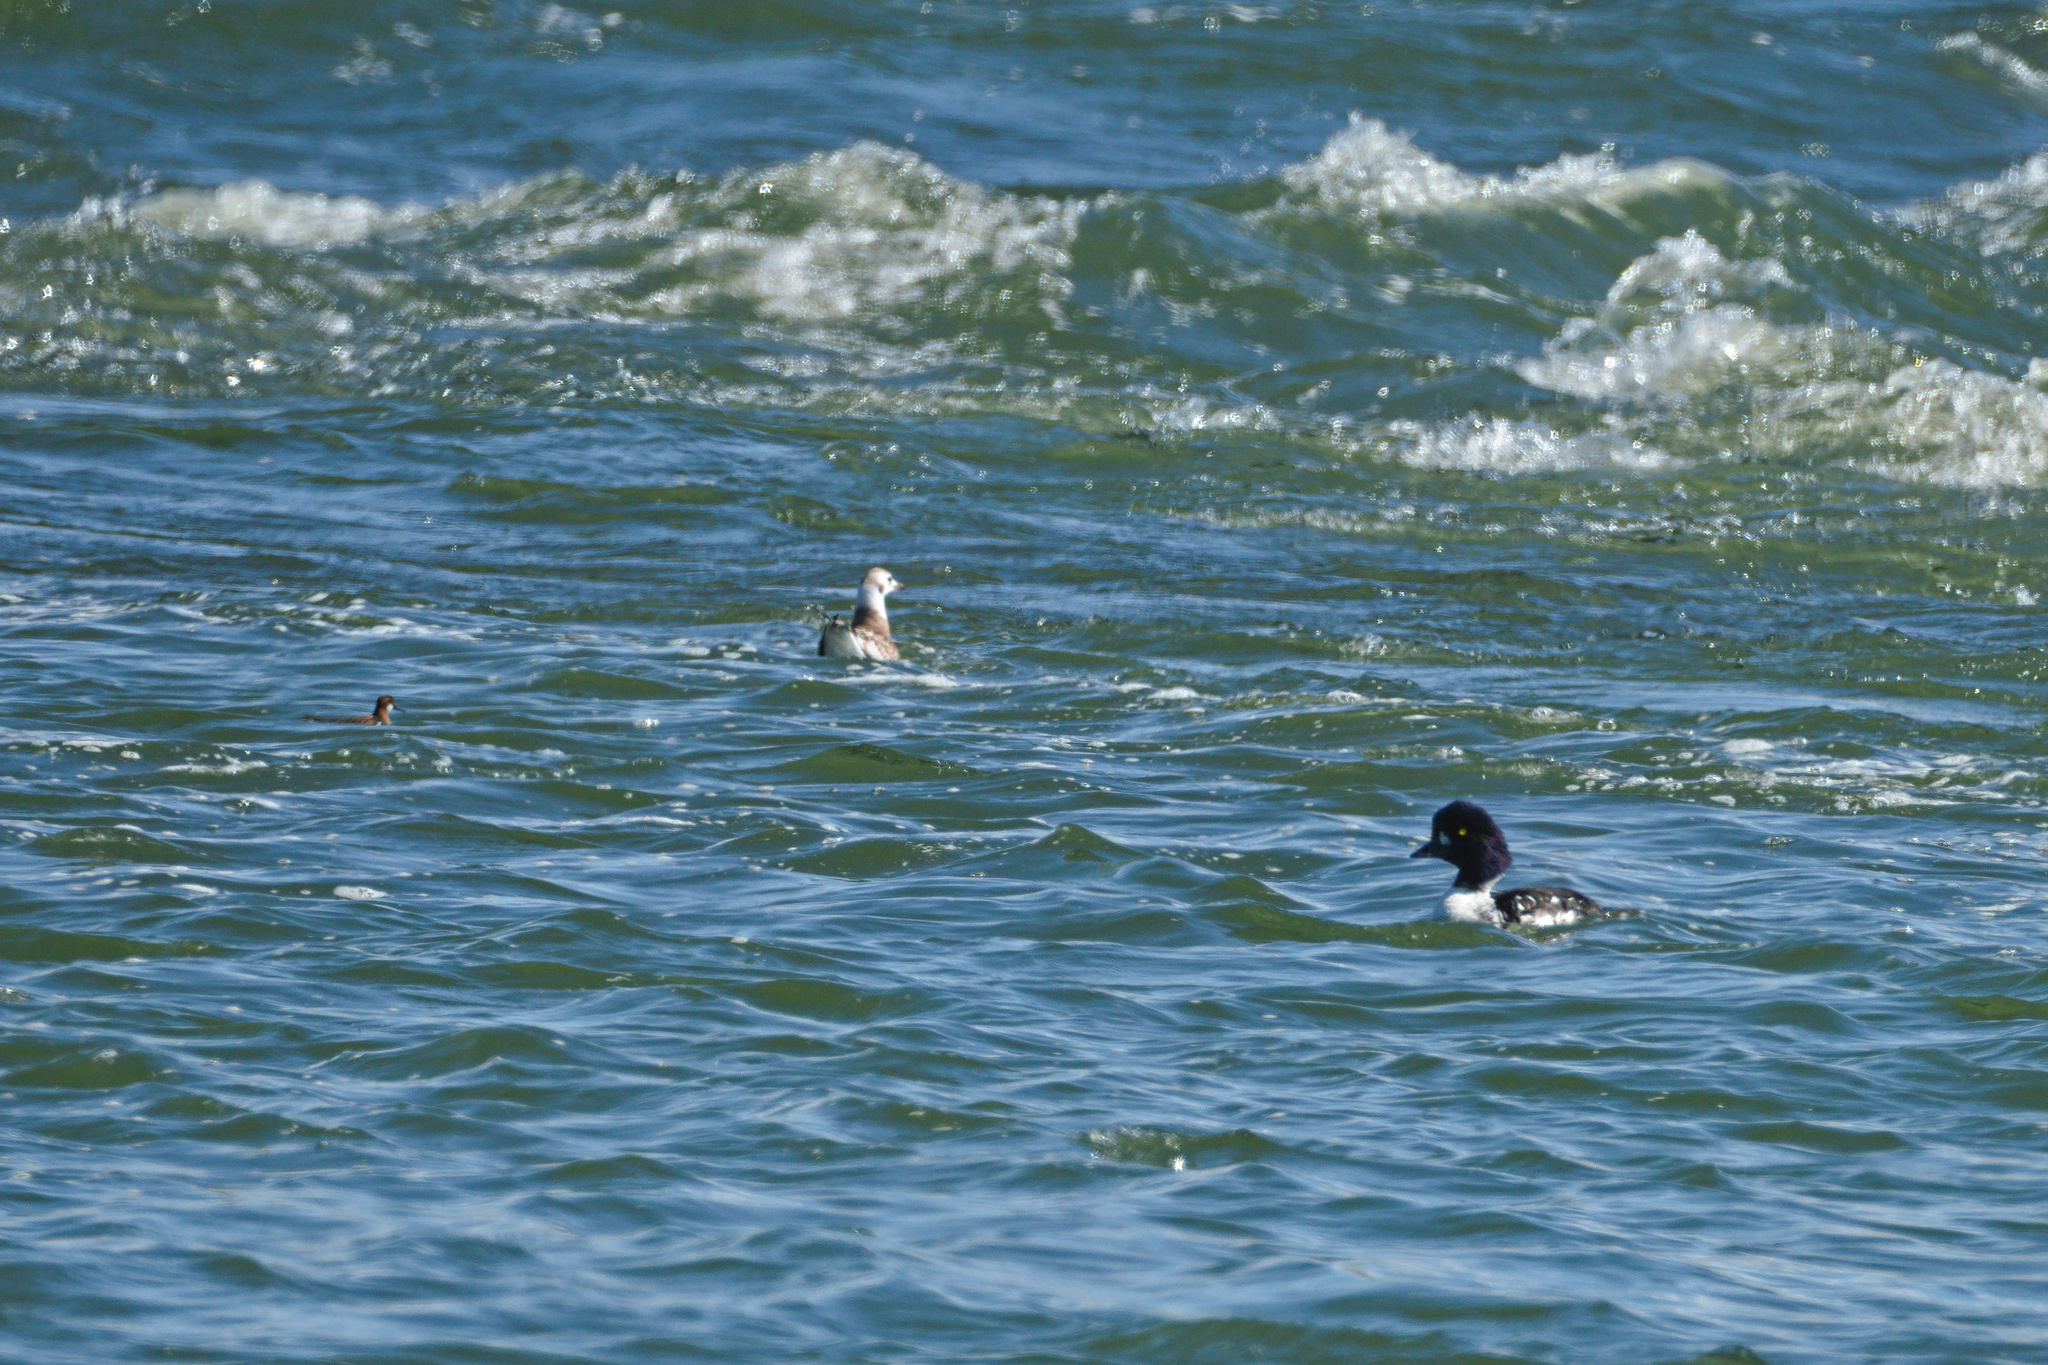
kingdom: Animalia
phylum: Chordata
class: Aves
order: Anseriformes
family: Anatidae
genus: Bucephala
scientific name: Bucephala islandica
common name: Barrow's goldeneye
